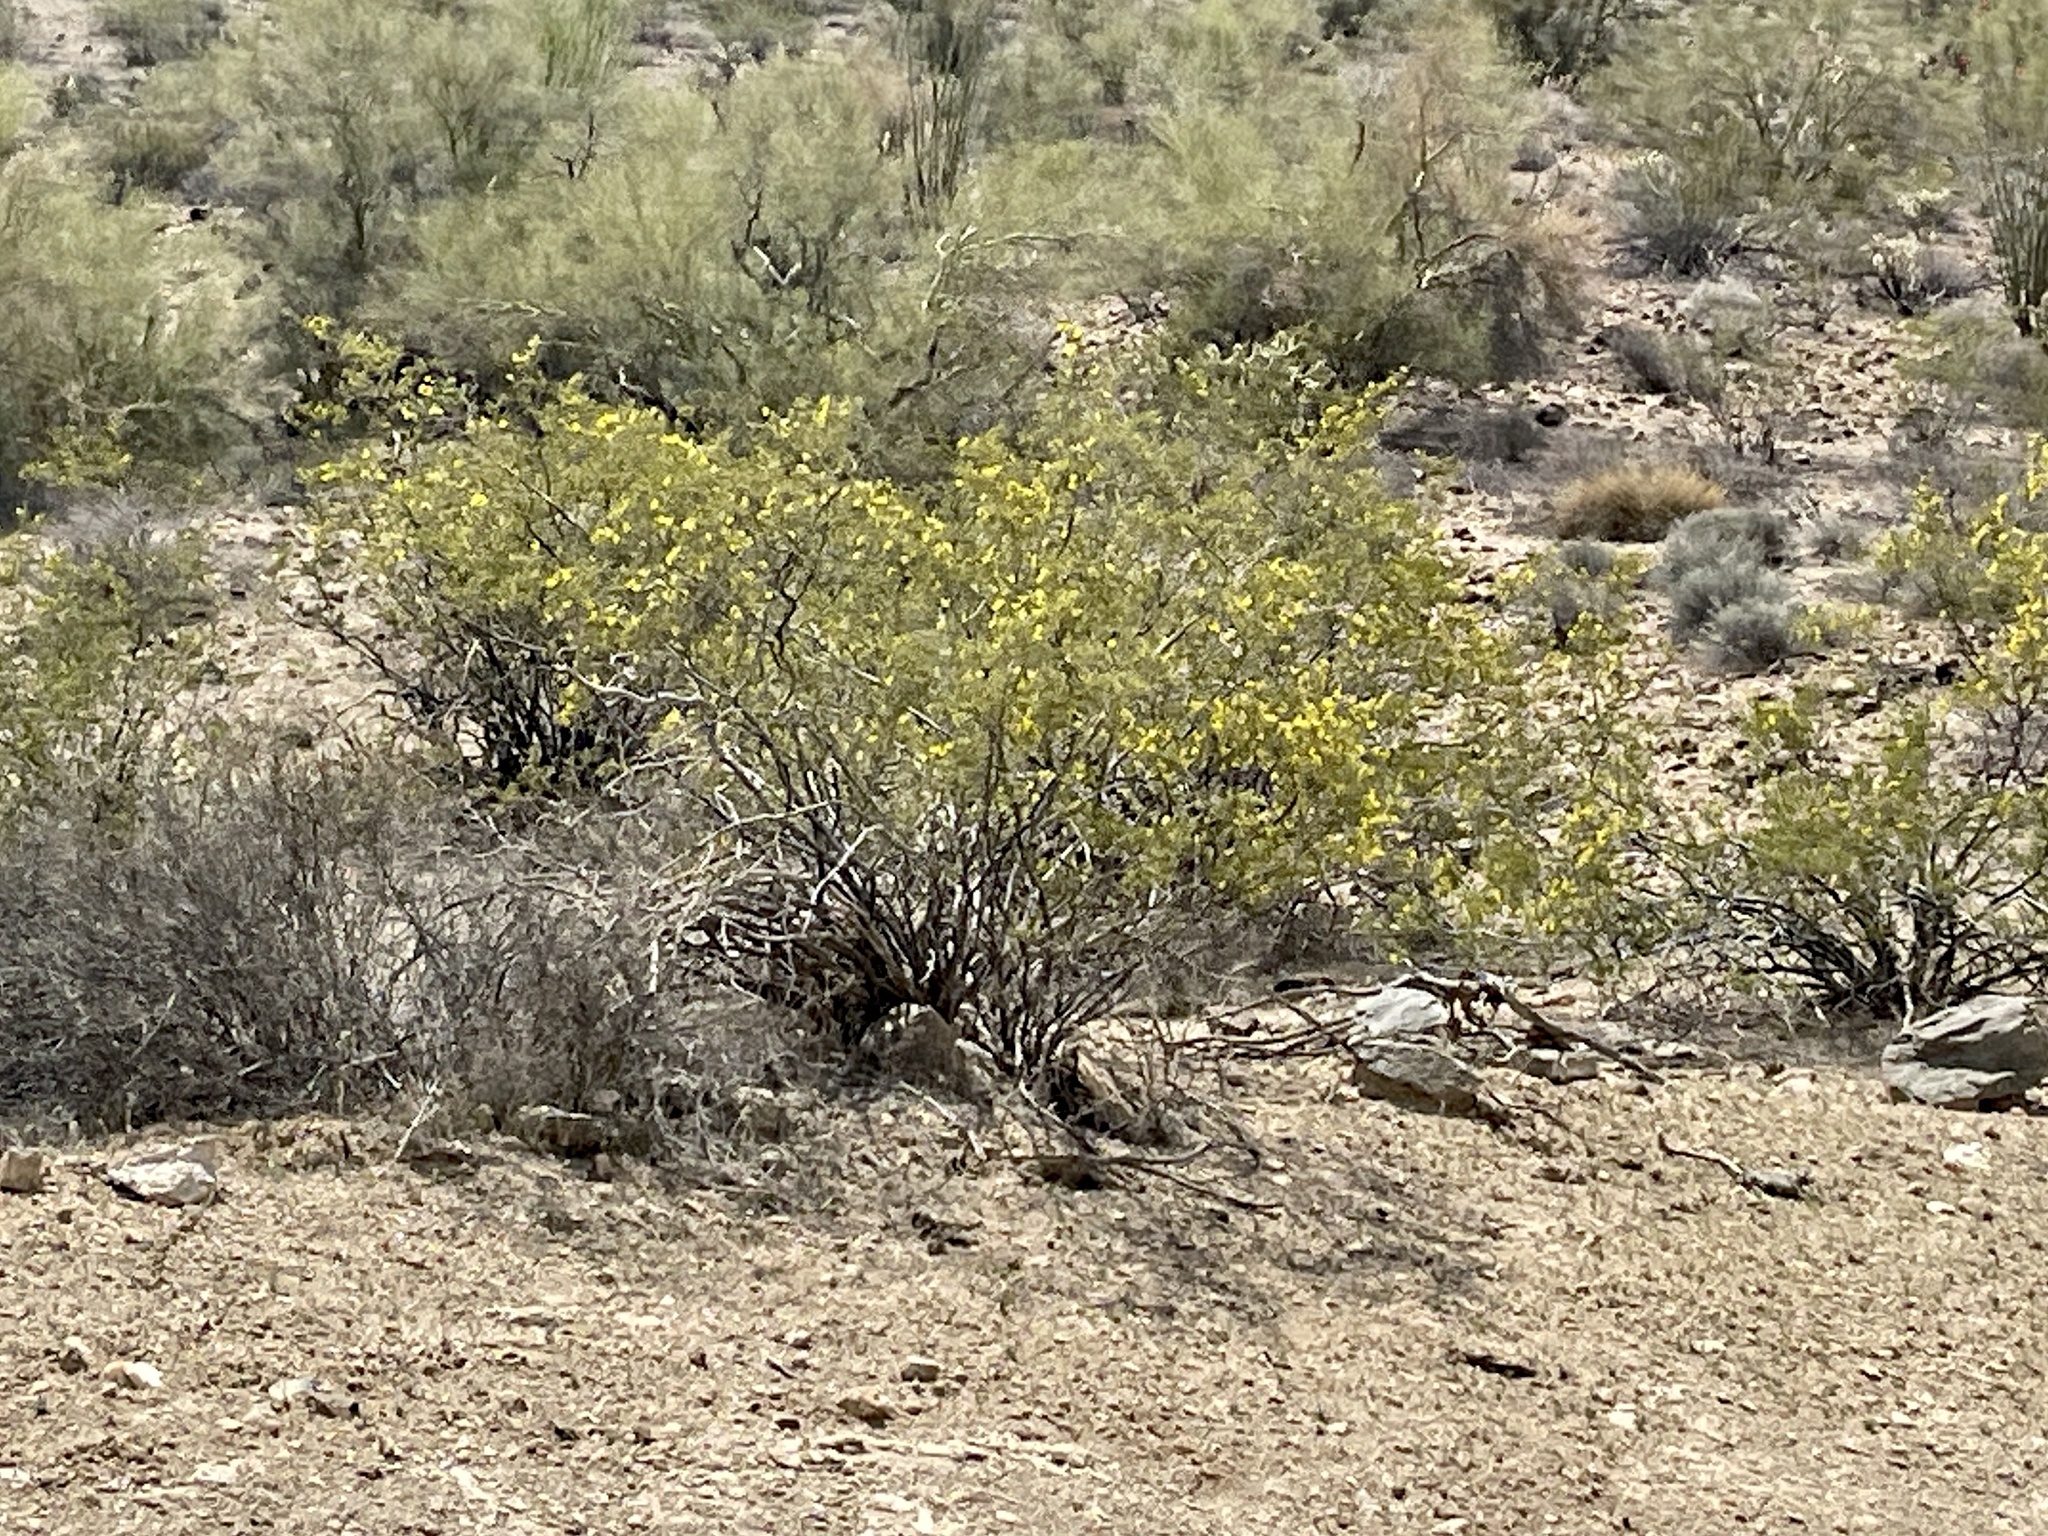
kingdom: Plantae
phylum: Tracheophyta
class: Magnoliopsida
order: Zygophyllales
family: Zygophyllaceae
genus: Larrea
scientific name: Larrea tridentata
